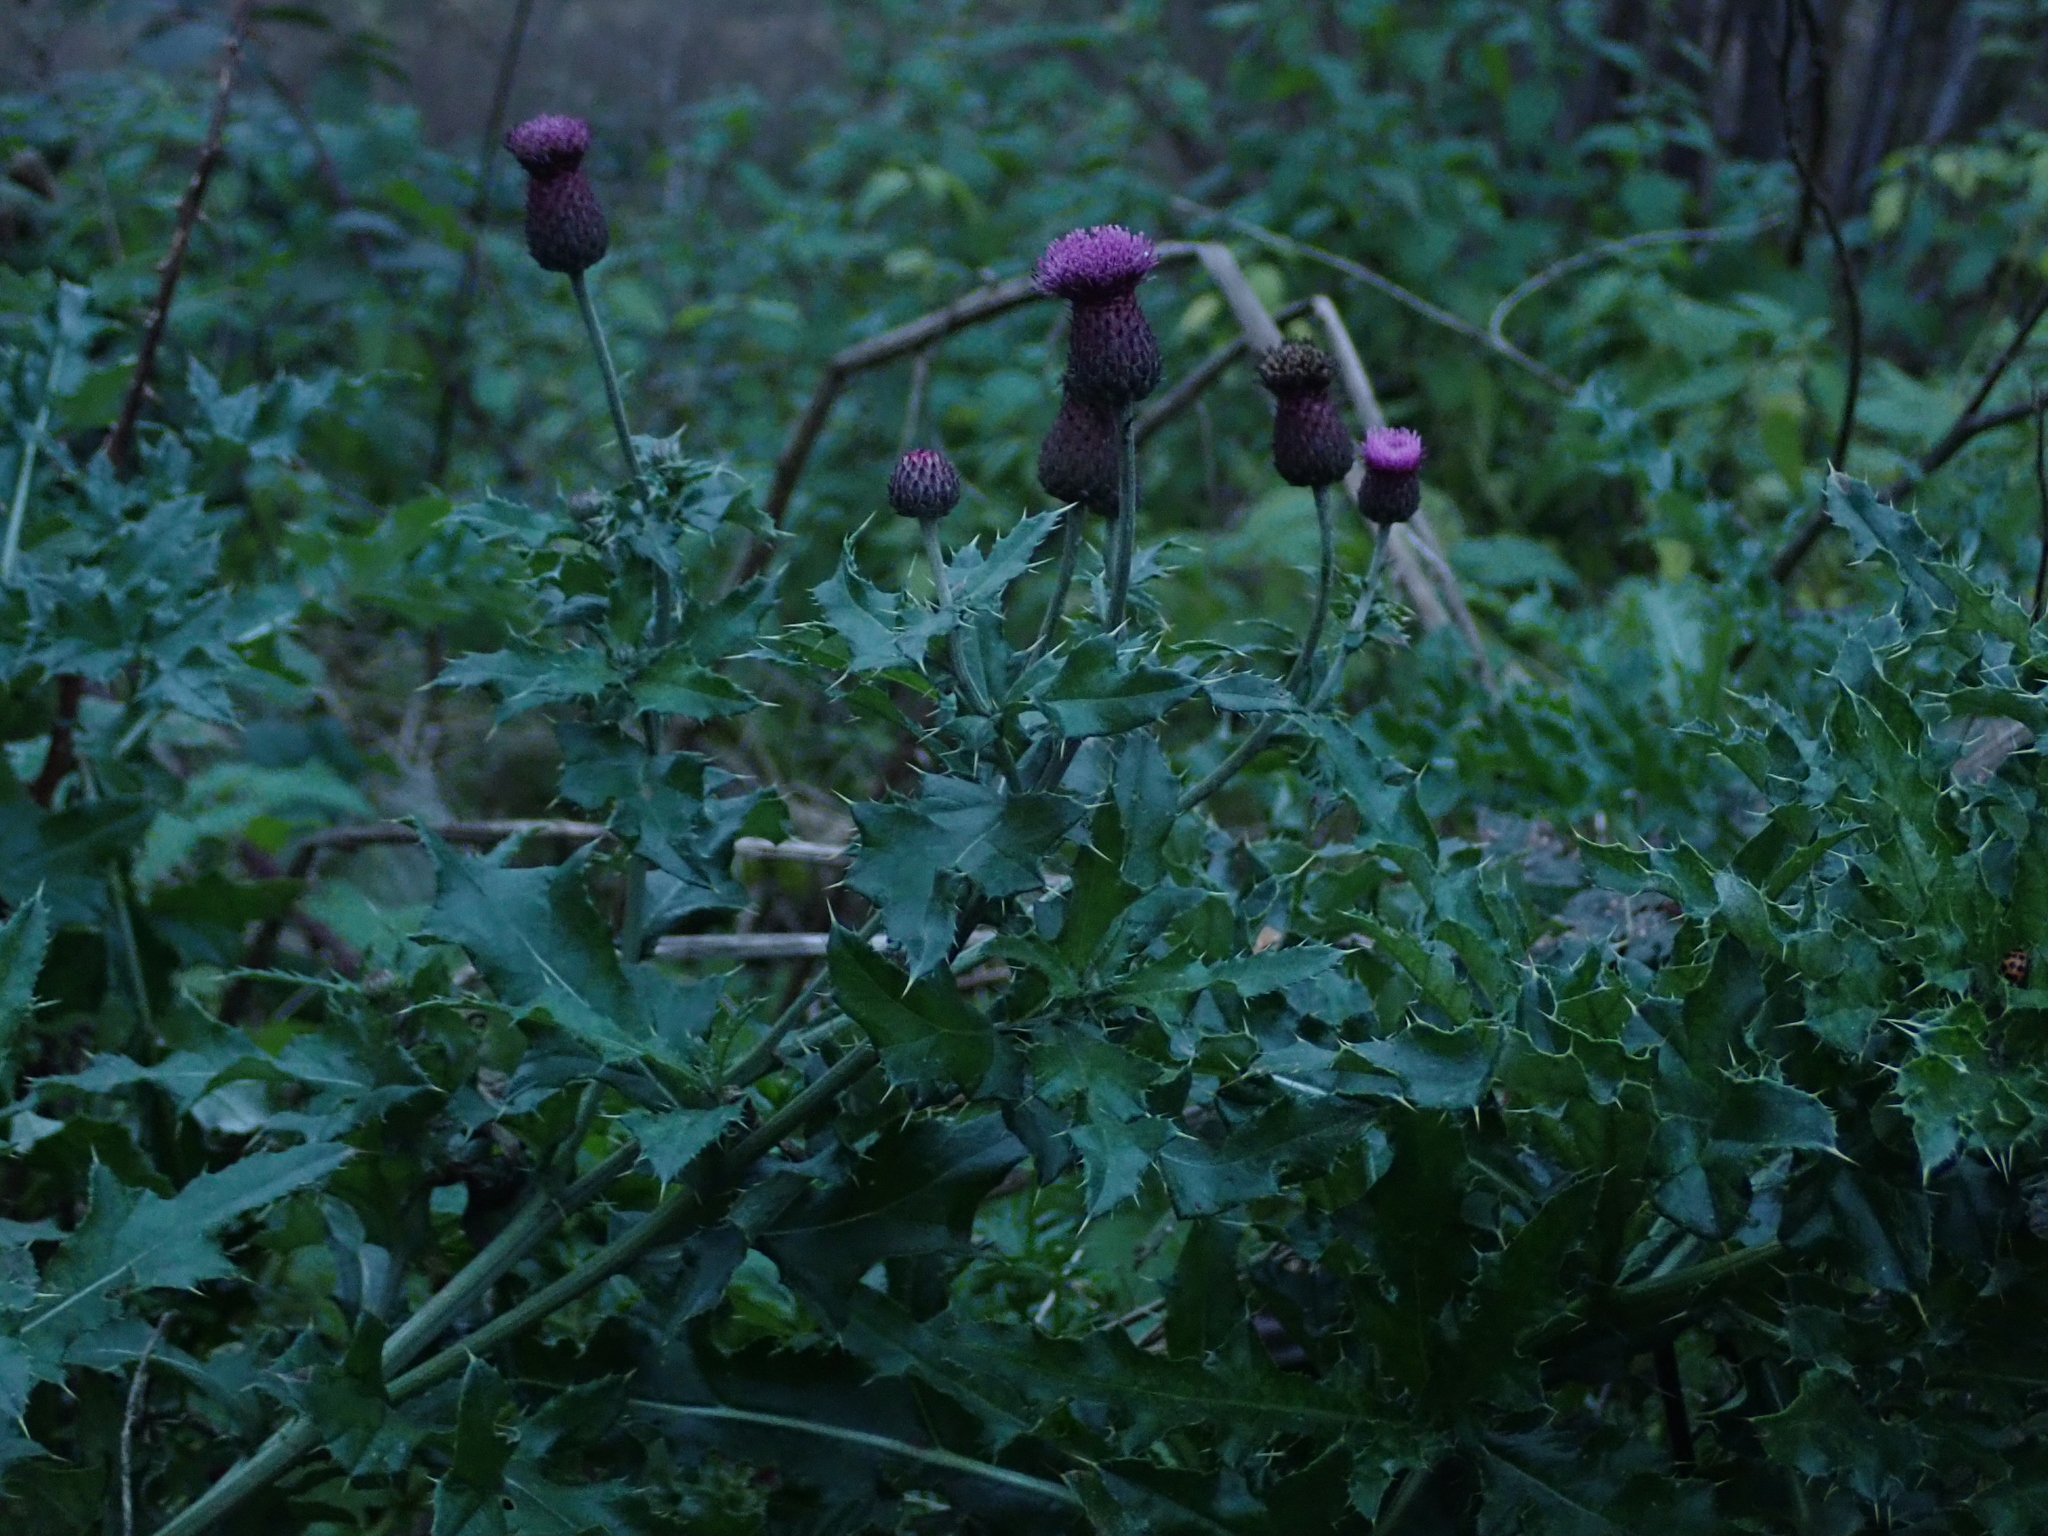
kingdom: Plantae
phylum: Tracheophyta
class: Magnoliopsida
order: Asterales
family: Asteraceae
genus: Cirsium
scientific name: Cirsium arvense
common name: Creeping thistle
